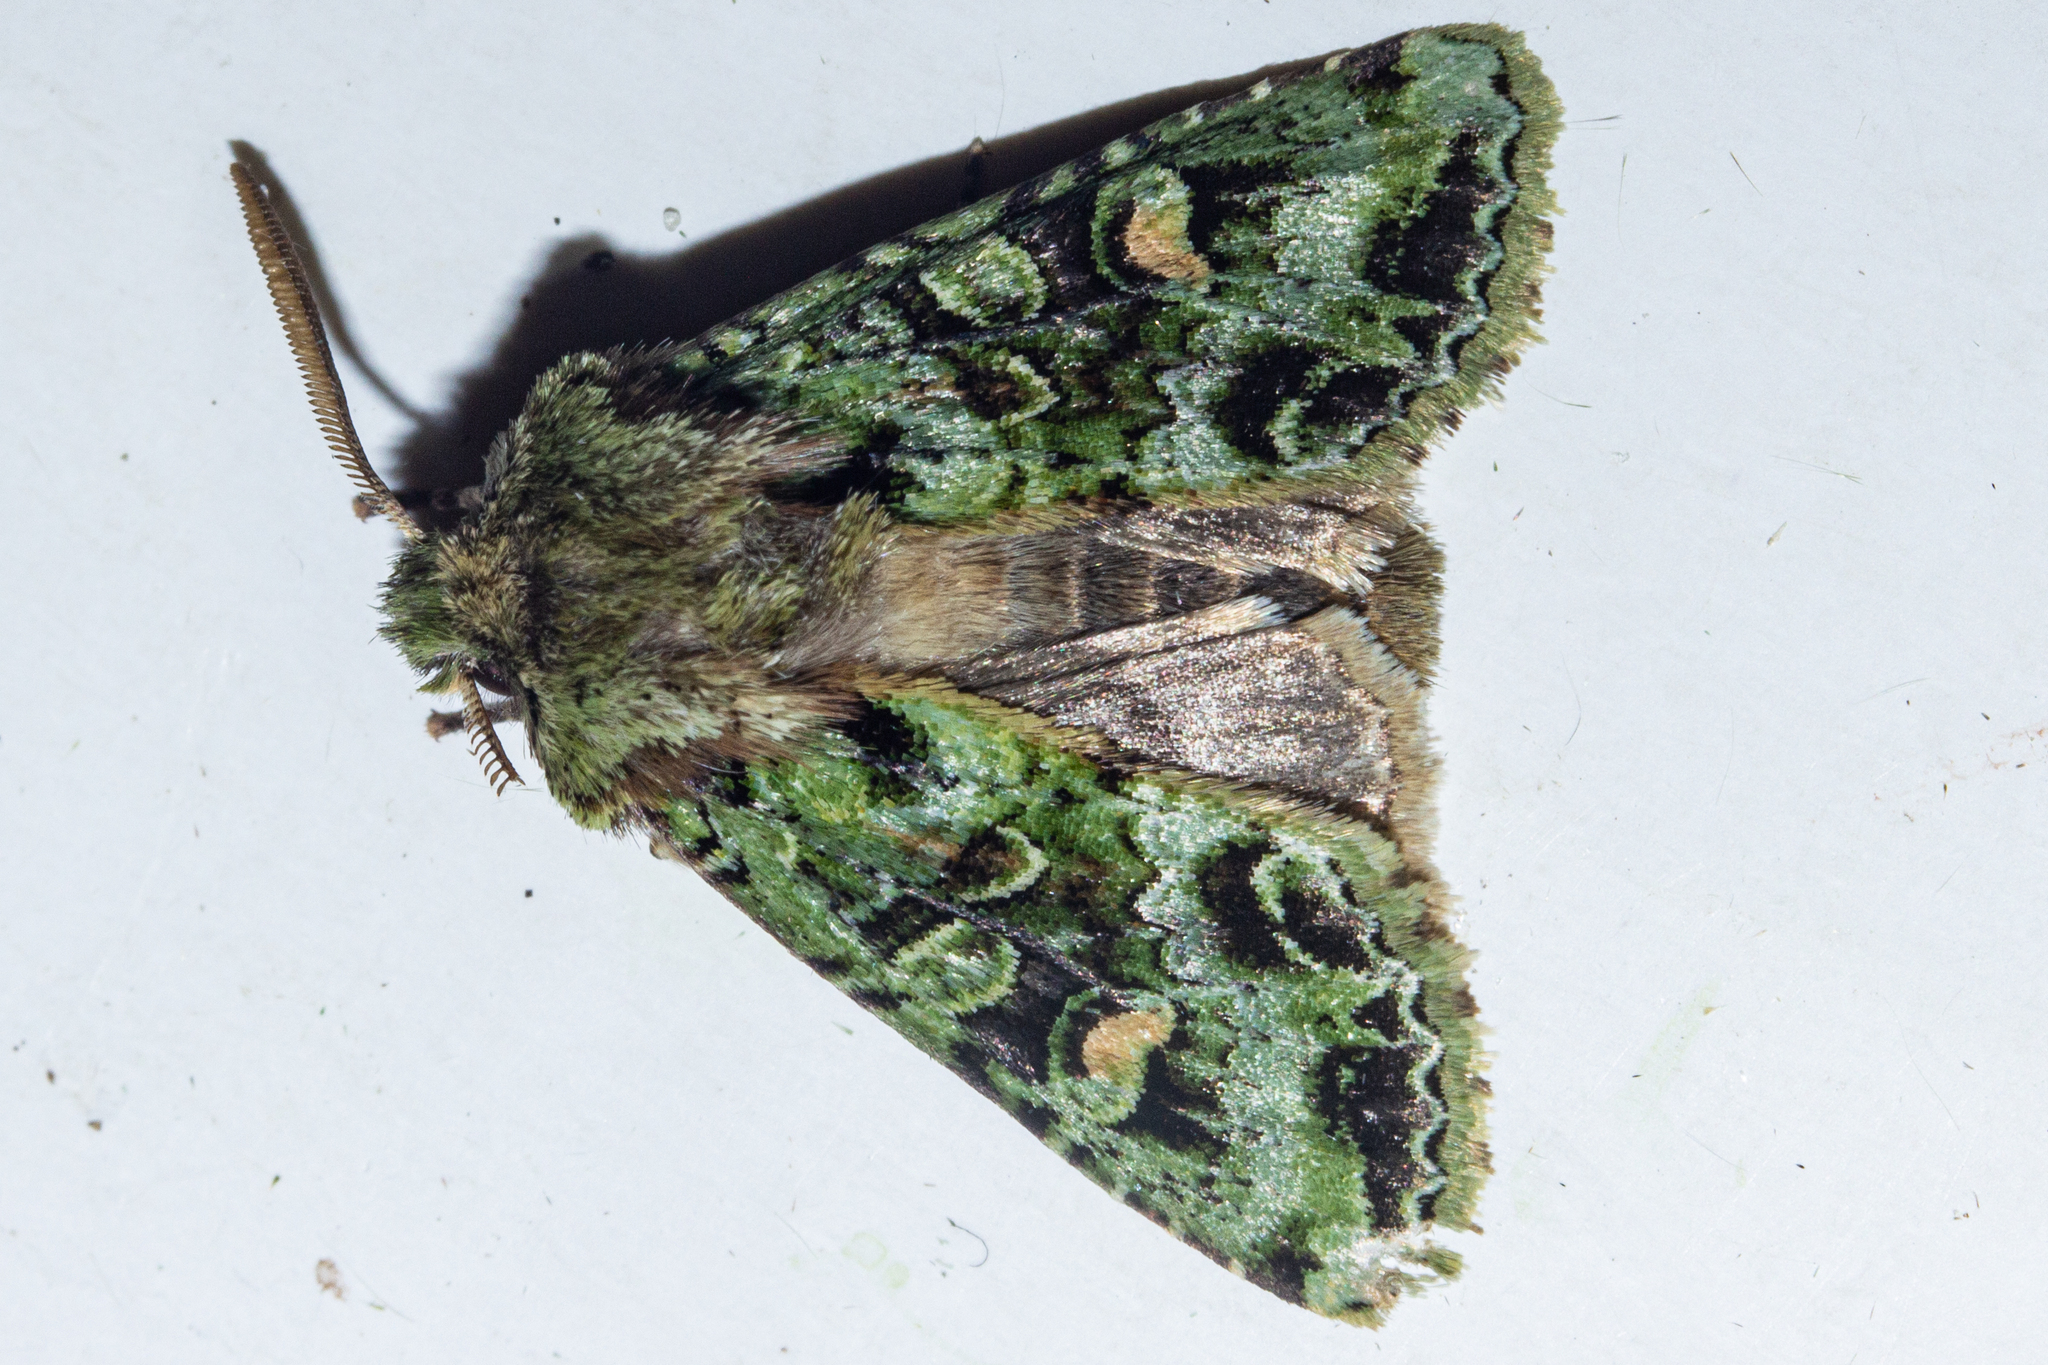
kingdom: Animalia
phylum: Arthropoda
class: Insecta
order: Lepidoptera
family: Noctuidae
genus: Ichneutica
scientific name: Ichneutica
